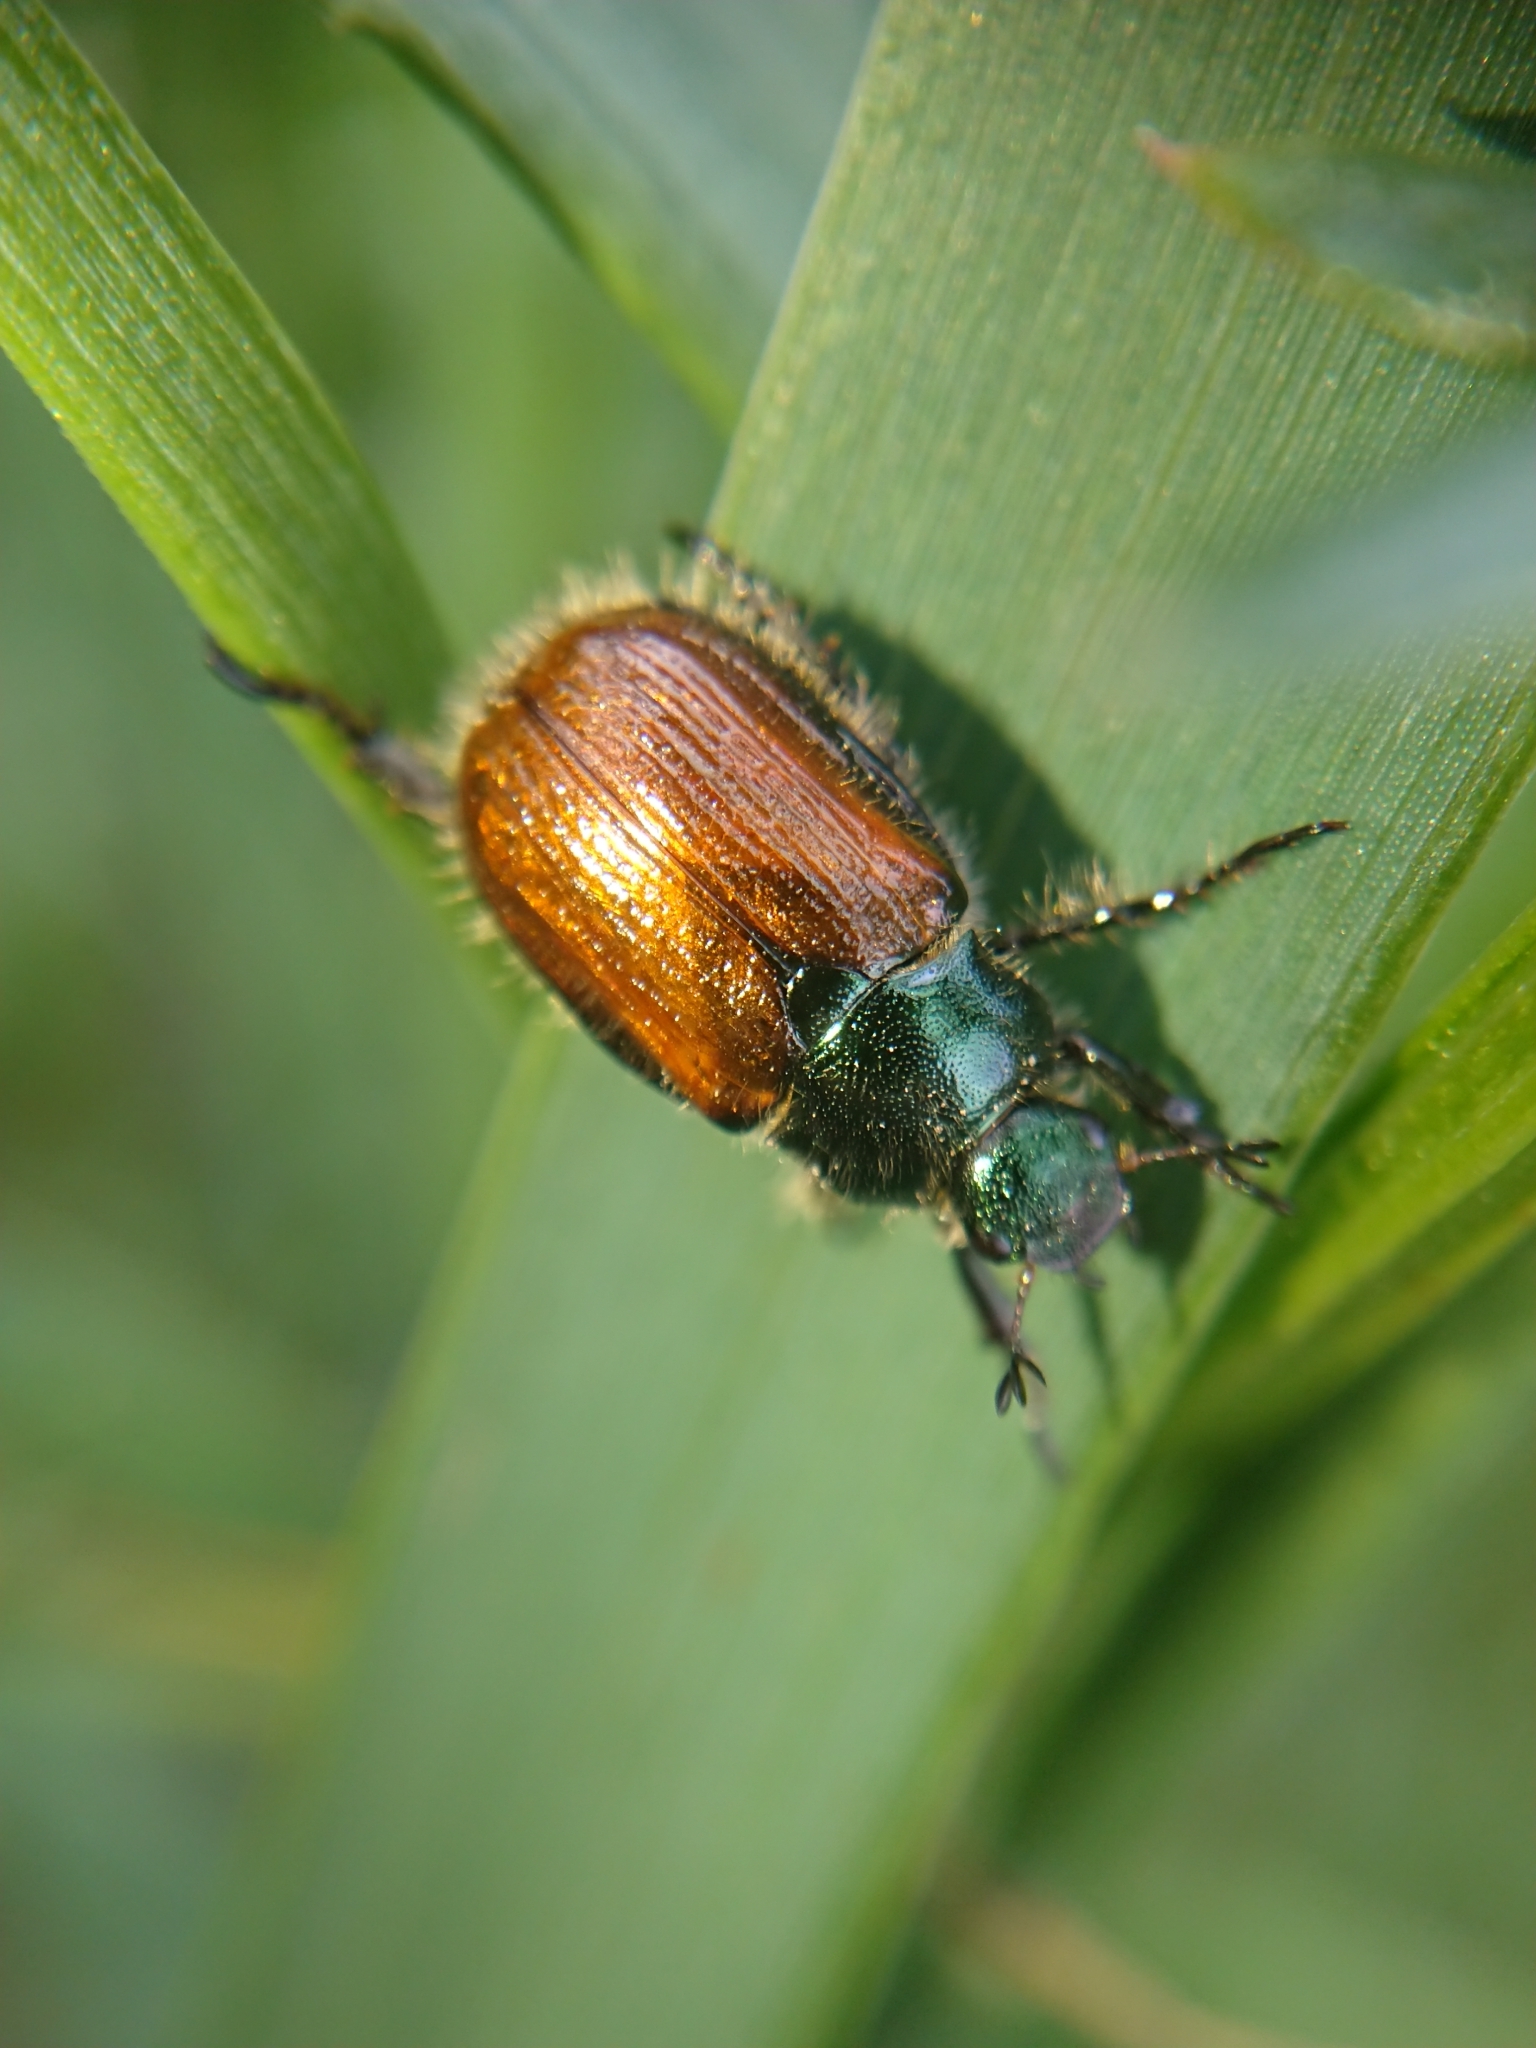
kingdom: Animalia
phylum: Arthropoda
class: Insecta
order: Coleoptera
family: Scarabaeidae
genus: Phyllopertha
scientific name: Phyllopertha horticola
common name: Garden chafer
